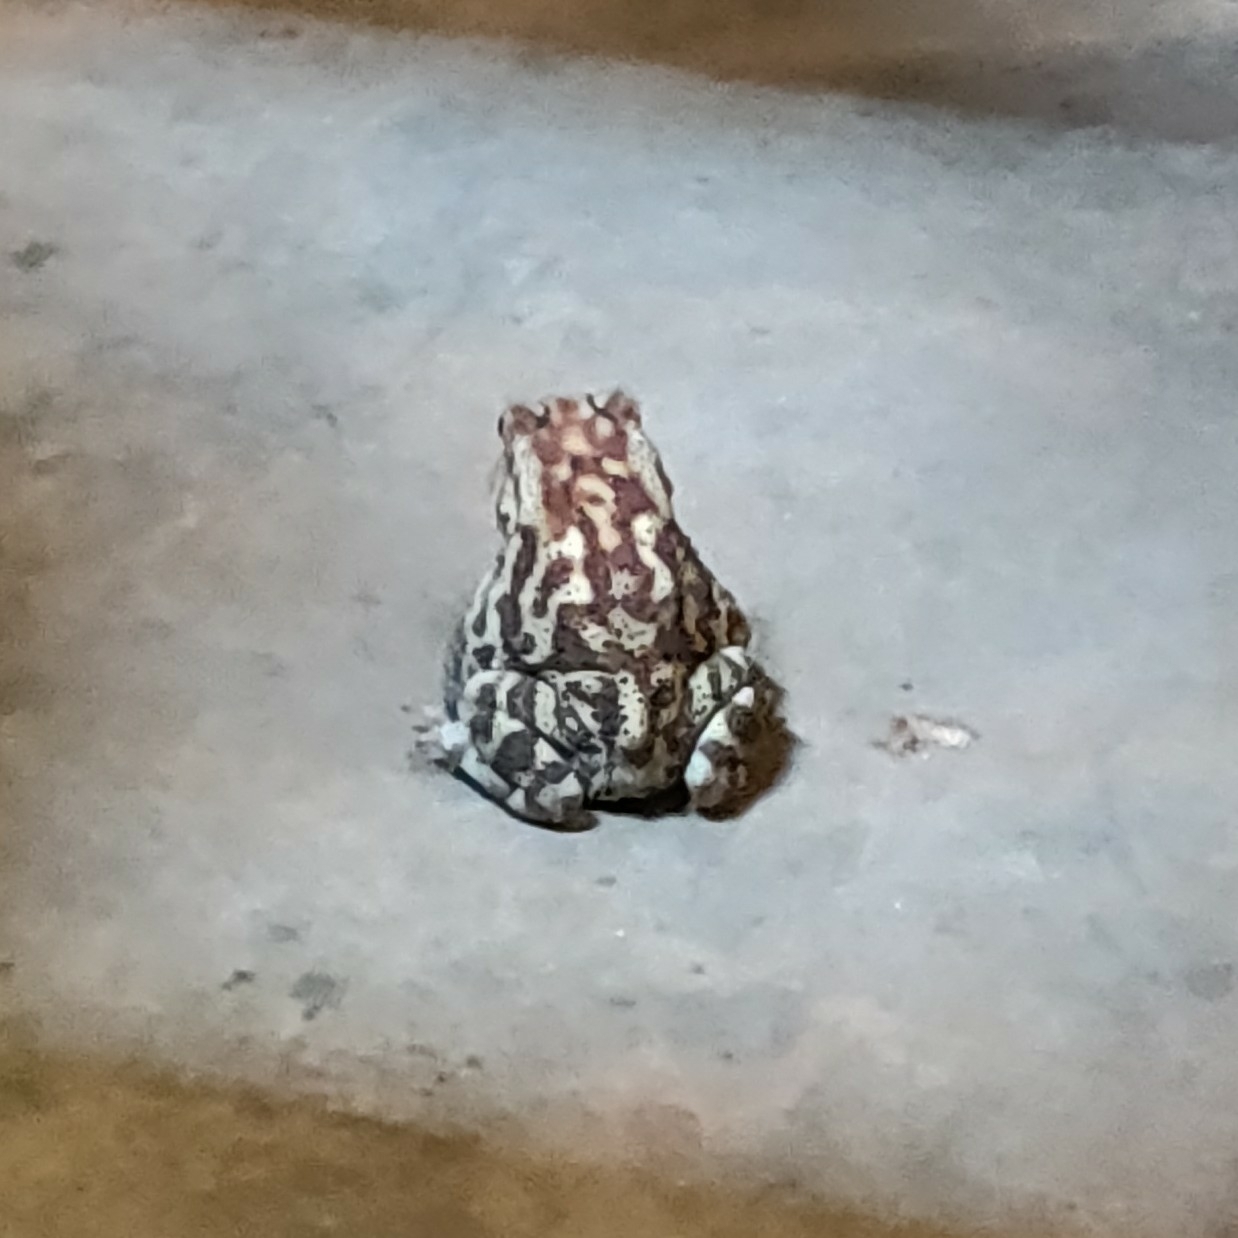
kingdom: Animalia
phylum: Chordata
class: Amphibia
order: Anura
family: Bufonidae
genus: Duttaphrynus
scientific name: Duttaphrynus melanostictus
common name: Common sunda toad
